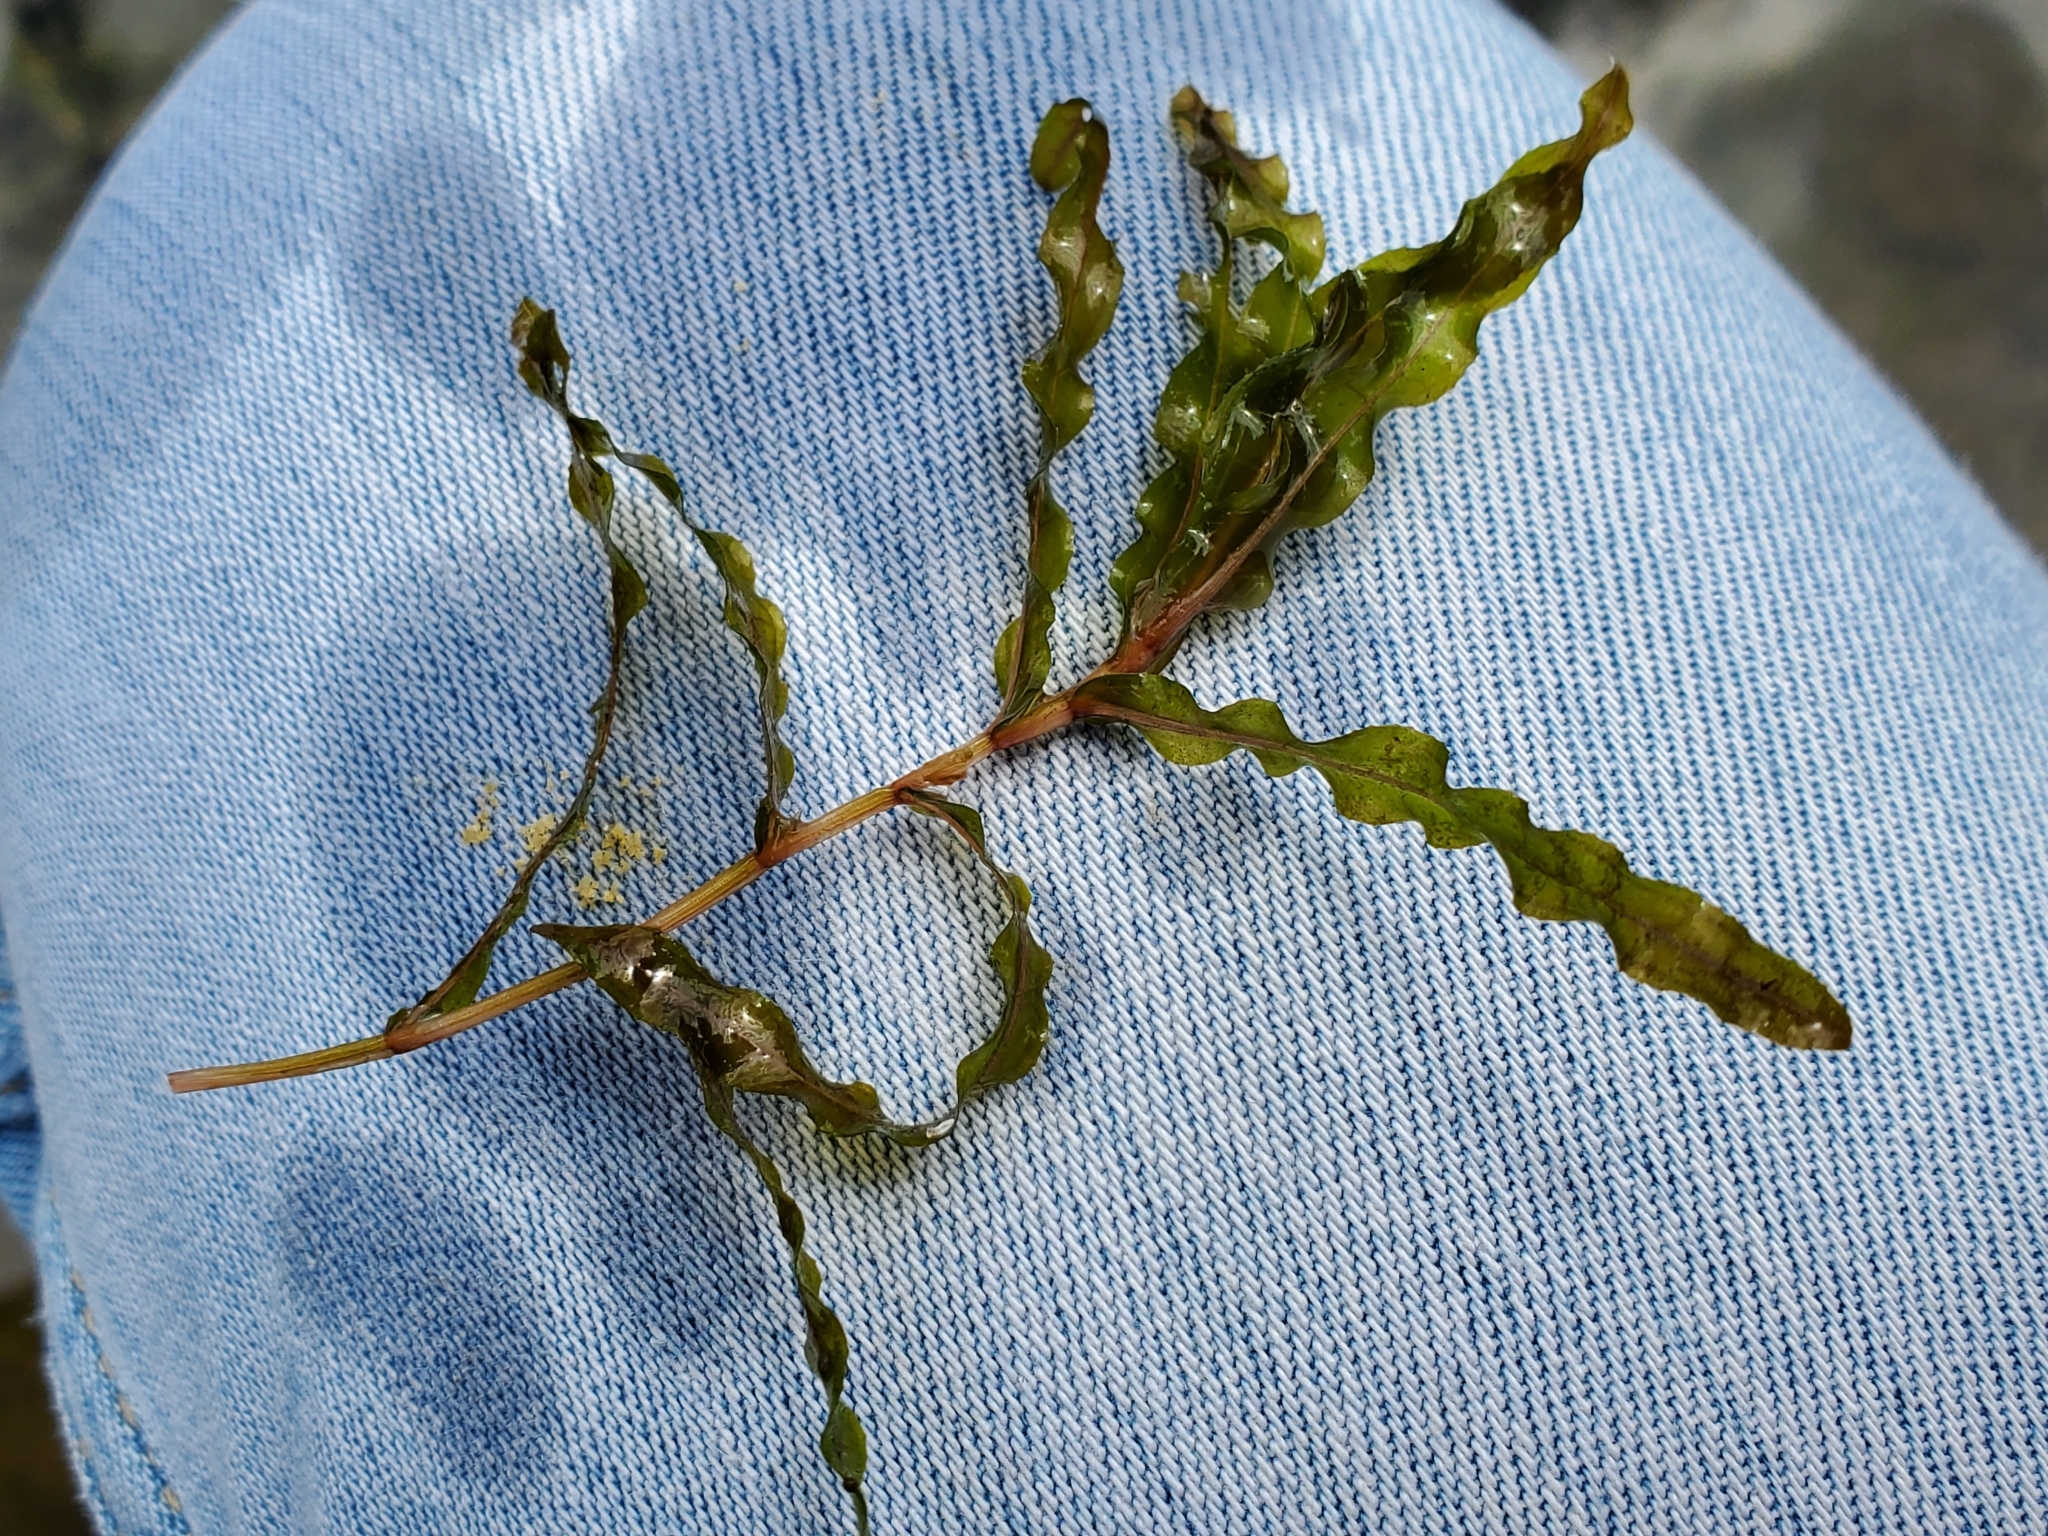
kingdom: Plantae
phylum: Tracheophyta
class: Liliopsida
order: Alismatales
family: Potamogetonaceae
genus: Potamogeton
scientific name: Potamogeton crispus
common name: Curled pondweed
